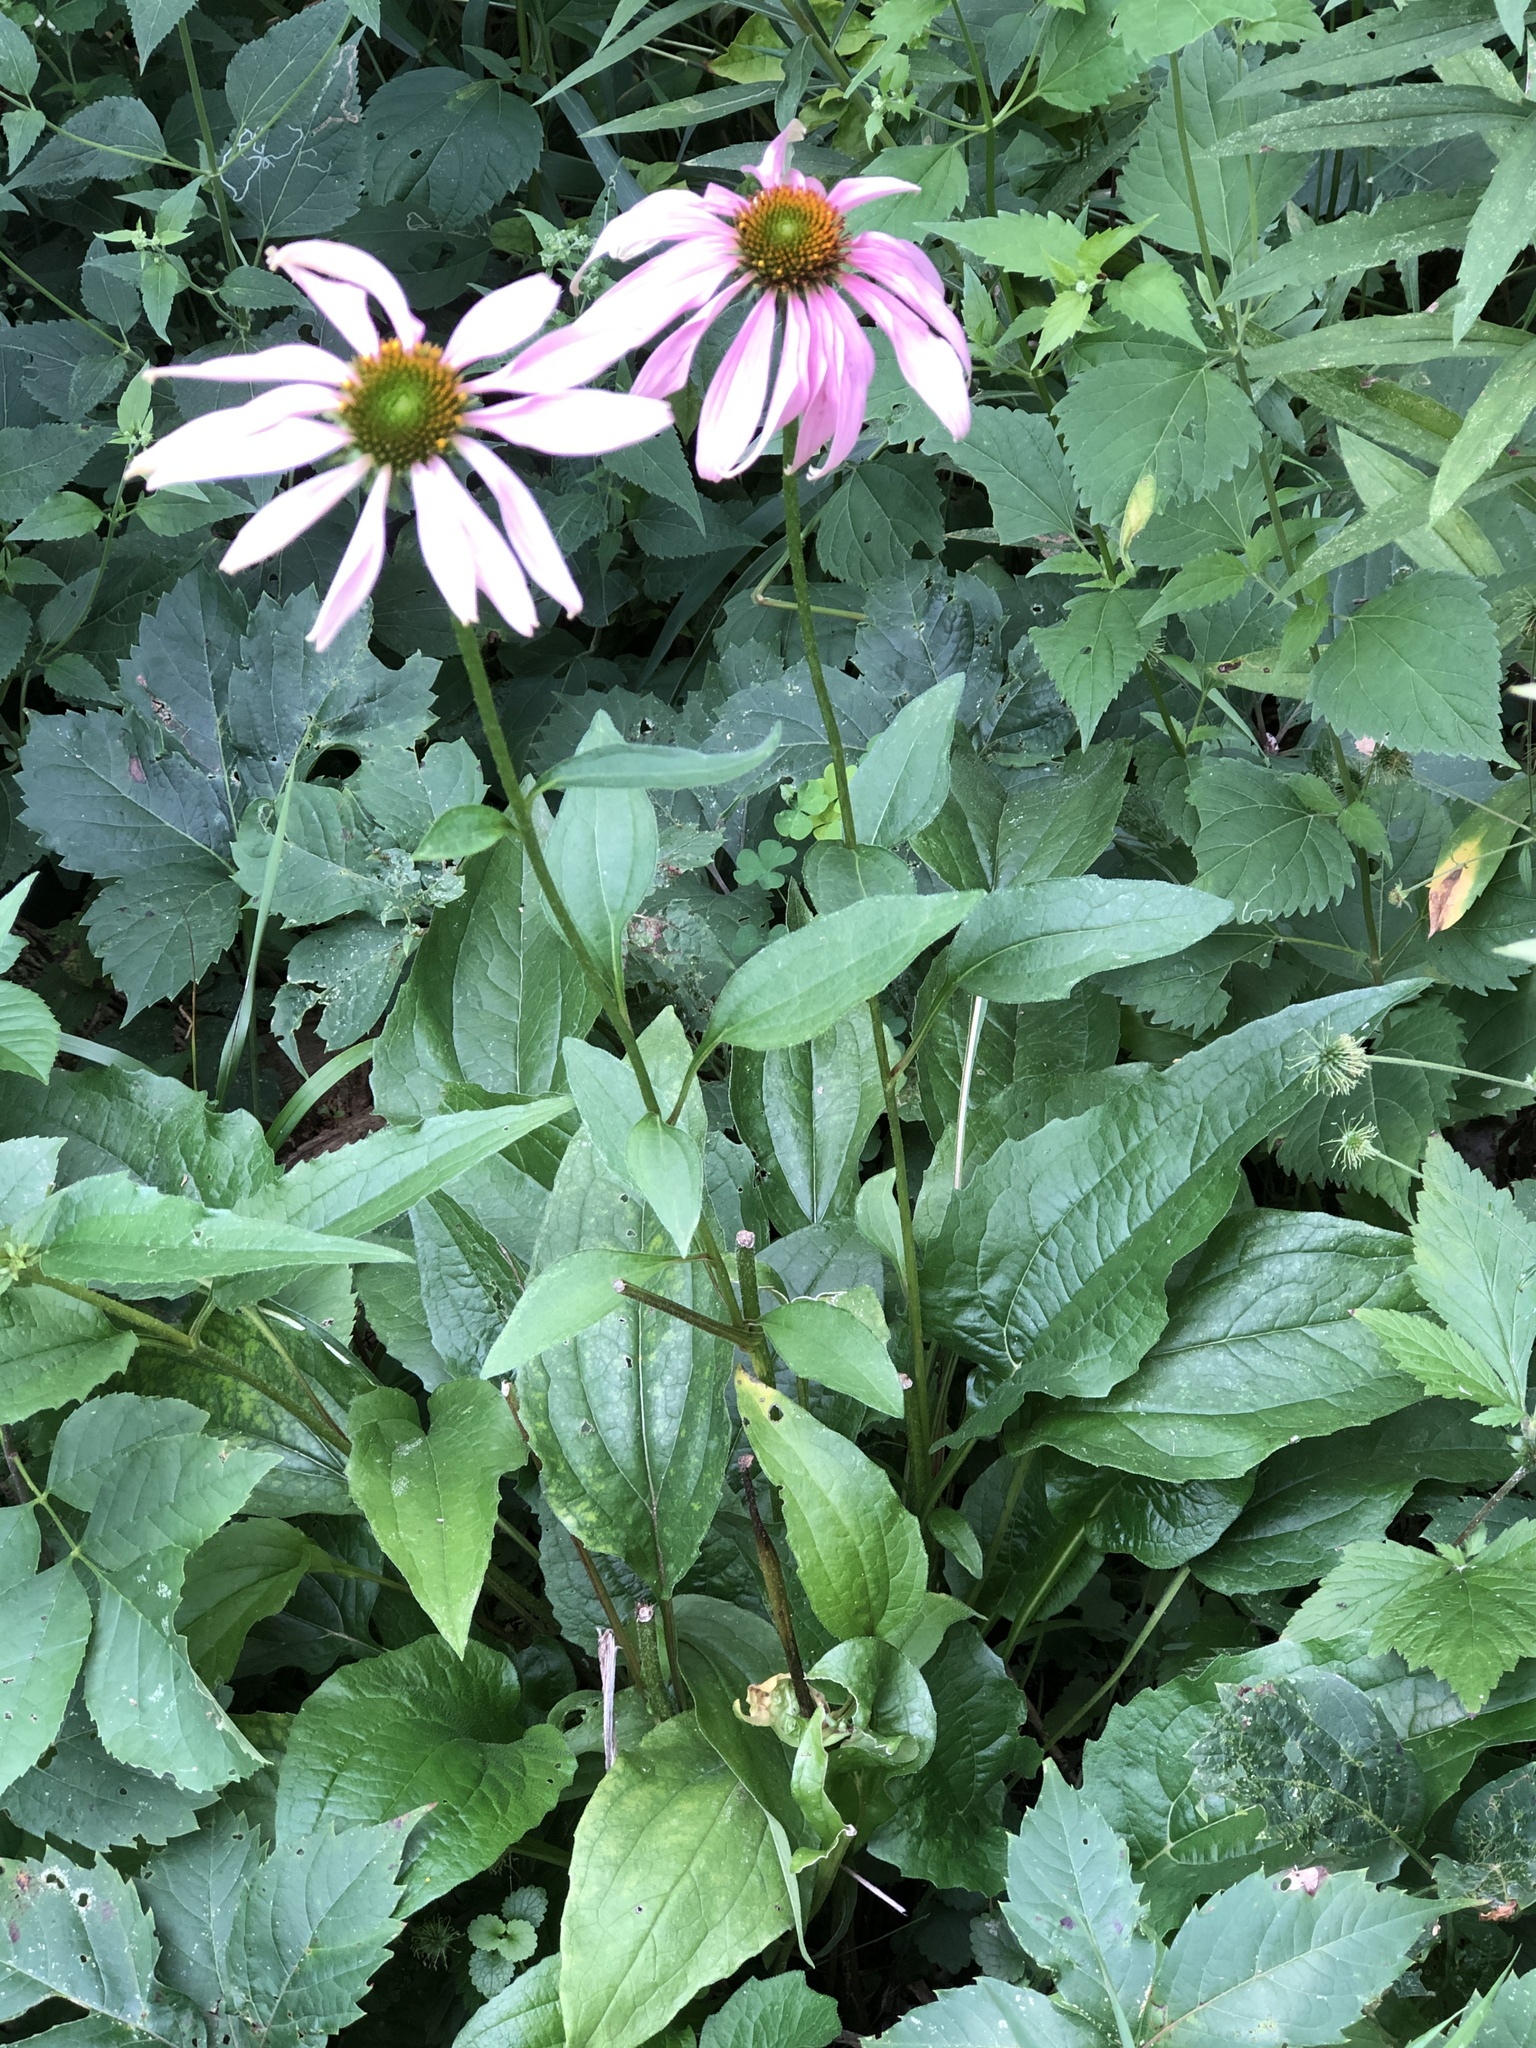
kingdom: Plantae
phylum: Tracheophyta
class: Magnoliopsida
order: Asterales
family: Asteraceae
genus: Echinacea
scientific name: Echinacea purpurea
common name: Broad-leaved purple coneflower
